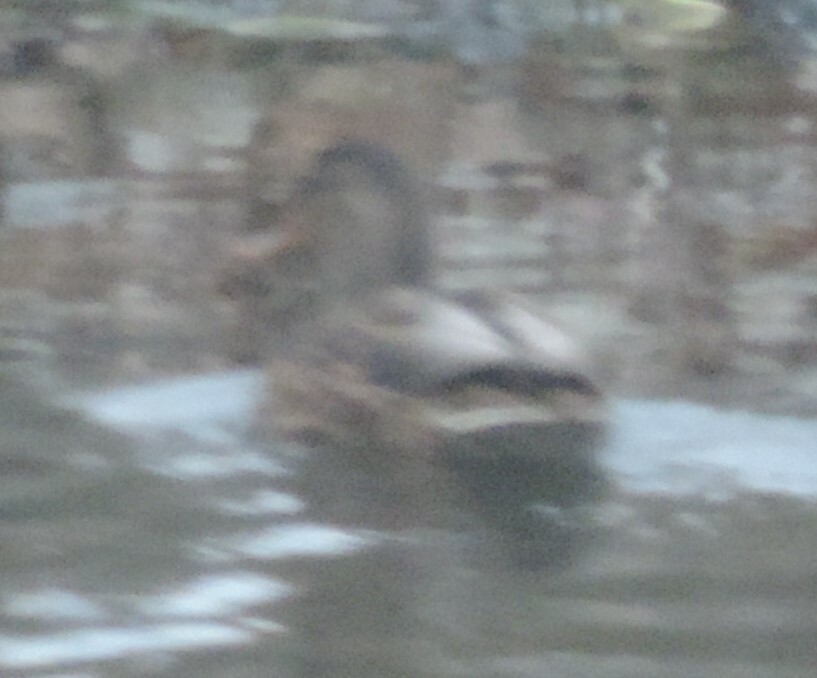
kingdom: Animalia
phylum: Chordata
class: Aves
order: Anseriformes
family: Anatidae
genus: Anas
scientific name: Anas platyrhynchos
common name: Mallard
